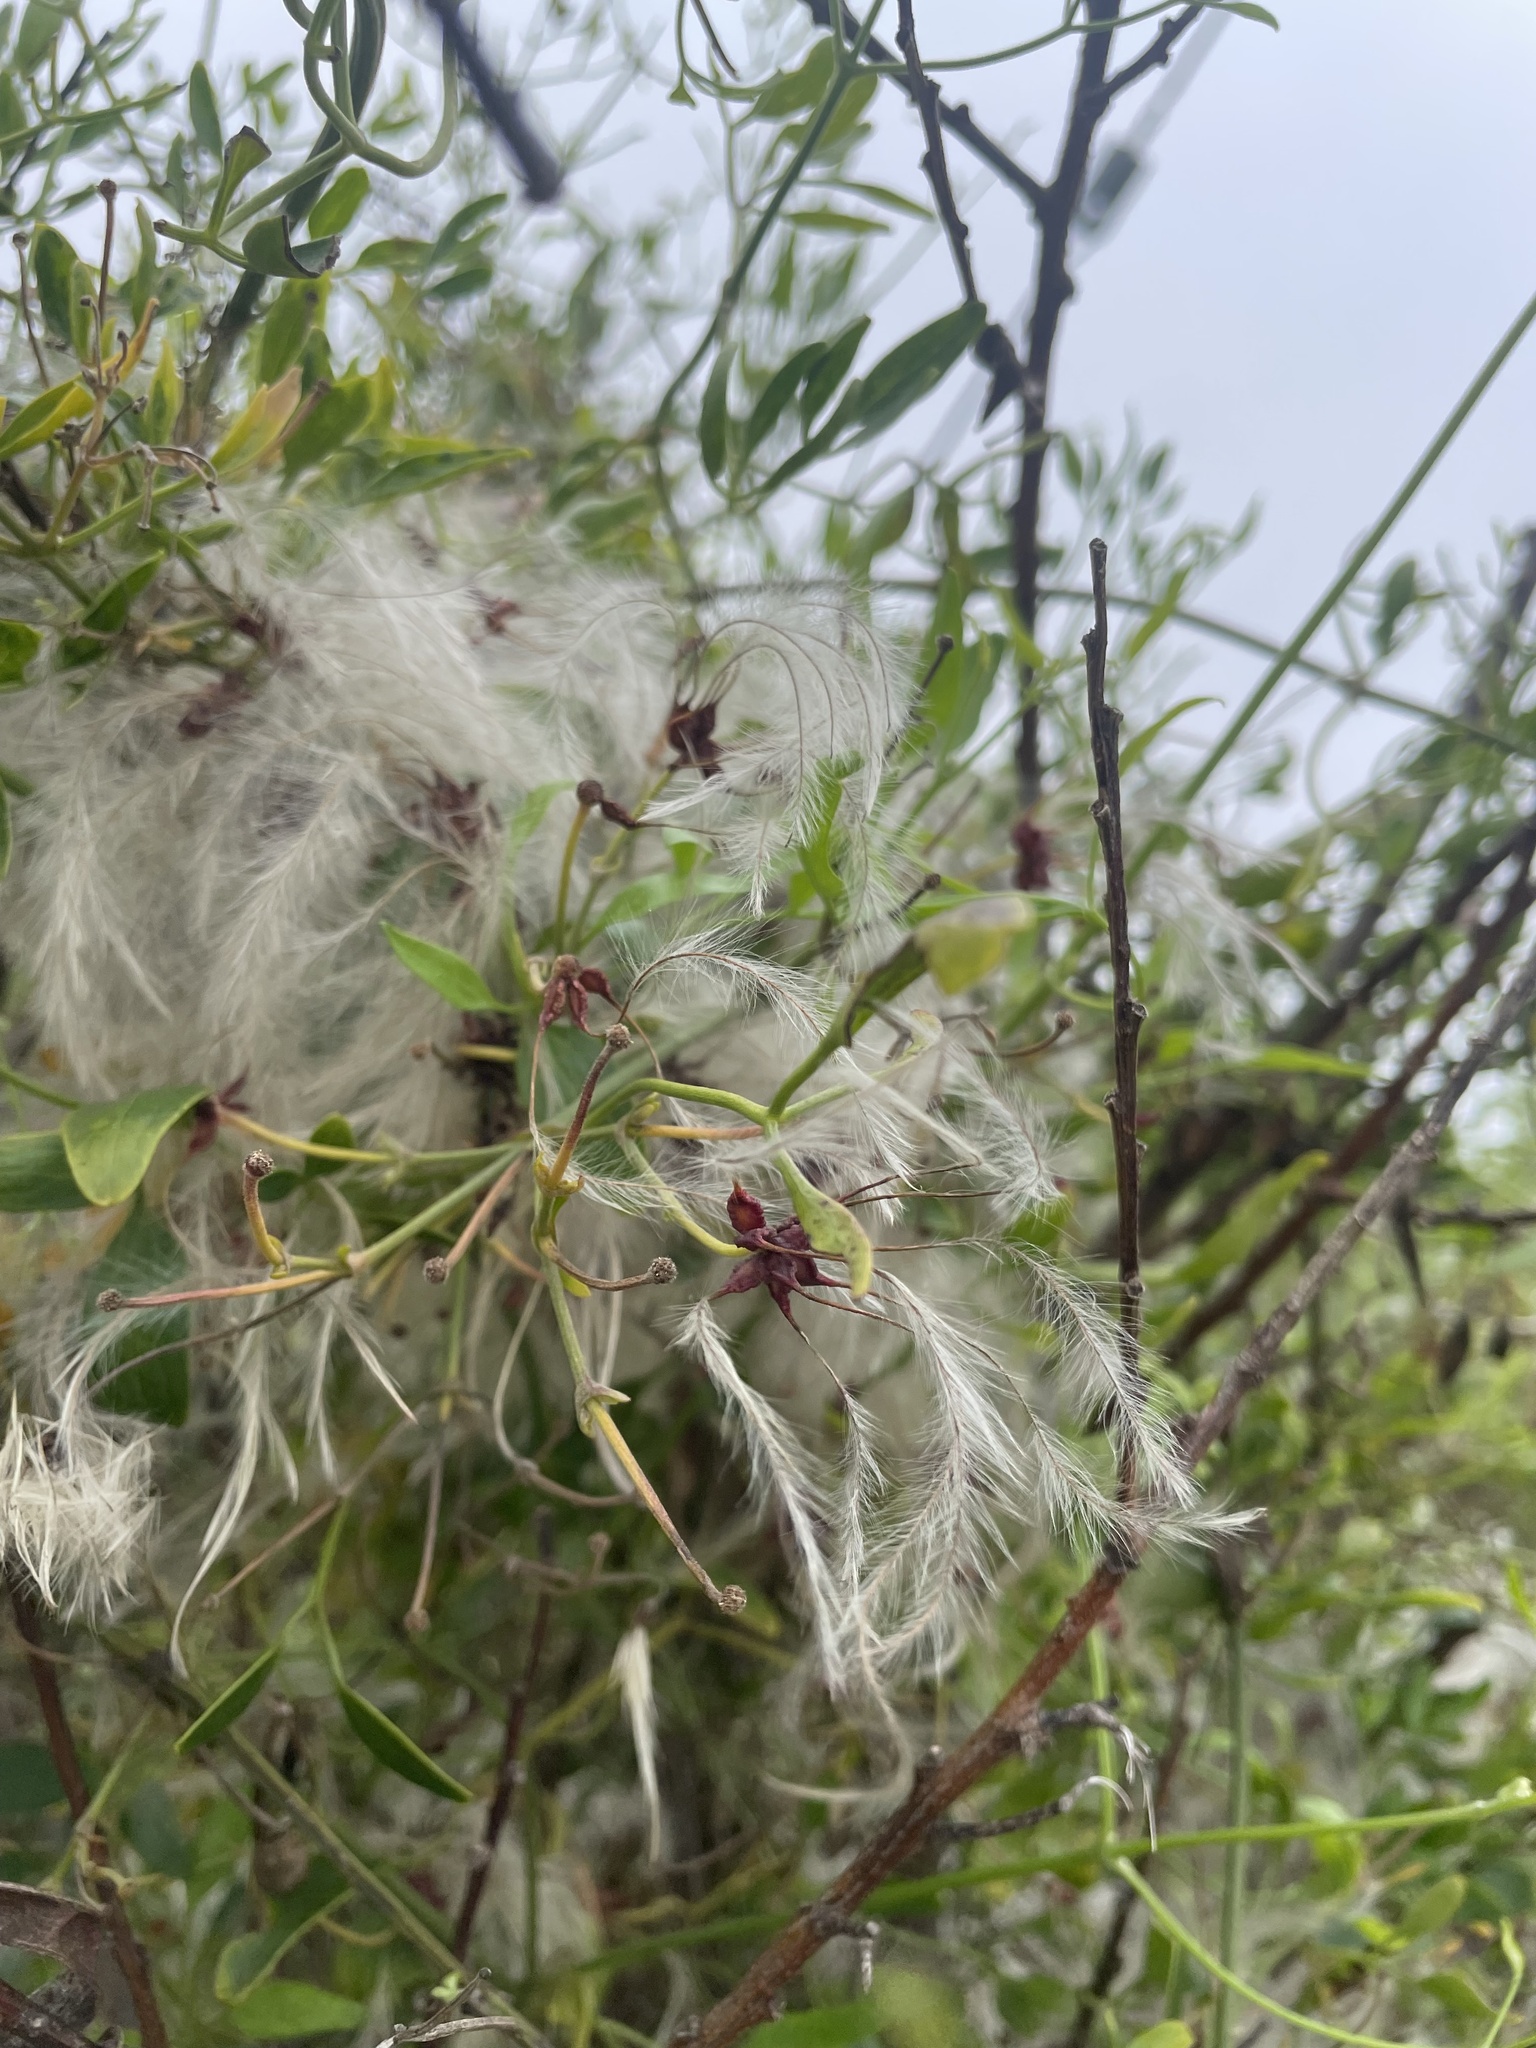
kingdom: Plantae
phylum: Tracheophyta
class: Magnoliopsida
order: Ranunculales
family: Ranunculaceae
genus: Clematis
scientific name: Clematis microphylla
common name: Headachevine
